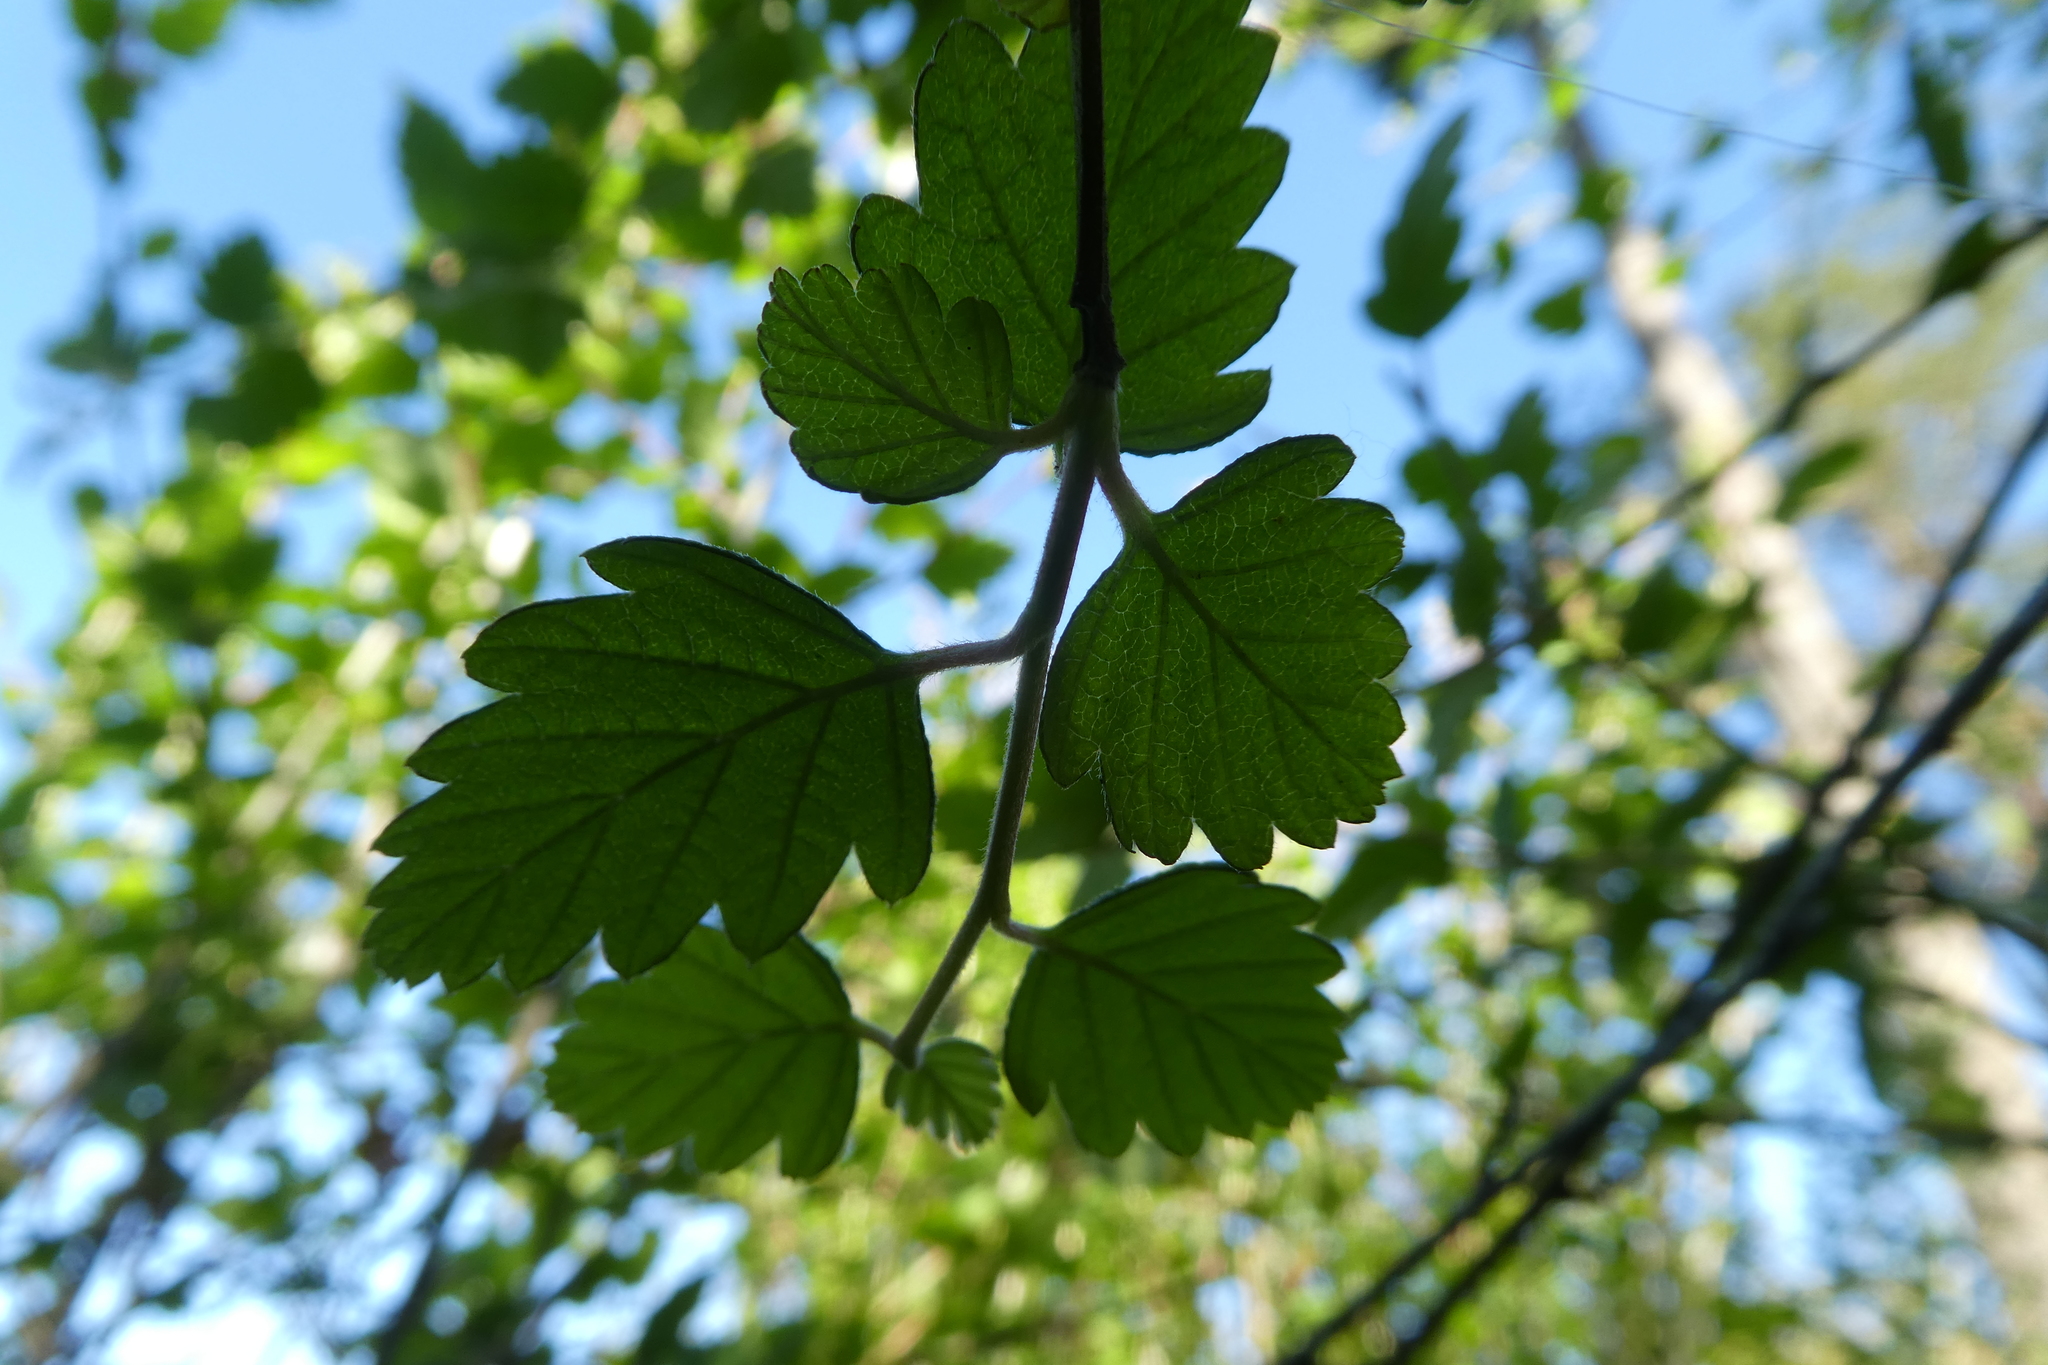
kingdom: Plantae
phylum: Tracheophyta
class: Magnoliopsida
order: Rosales
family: Rosaceae
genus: Holodiscus
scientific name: Holodiscus discolor
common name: Oceanspray
